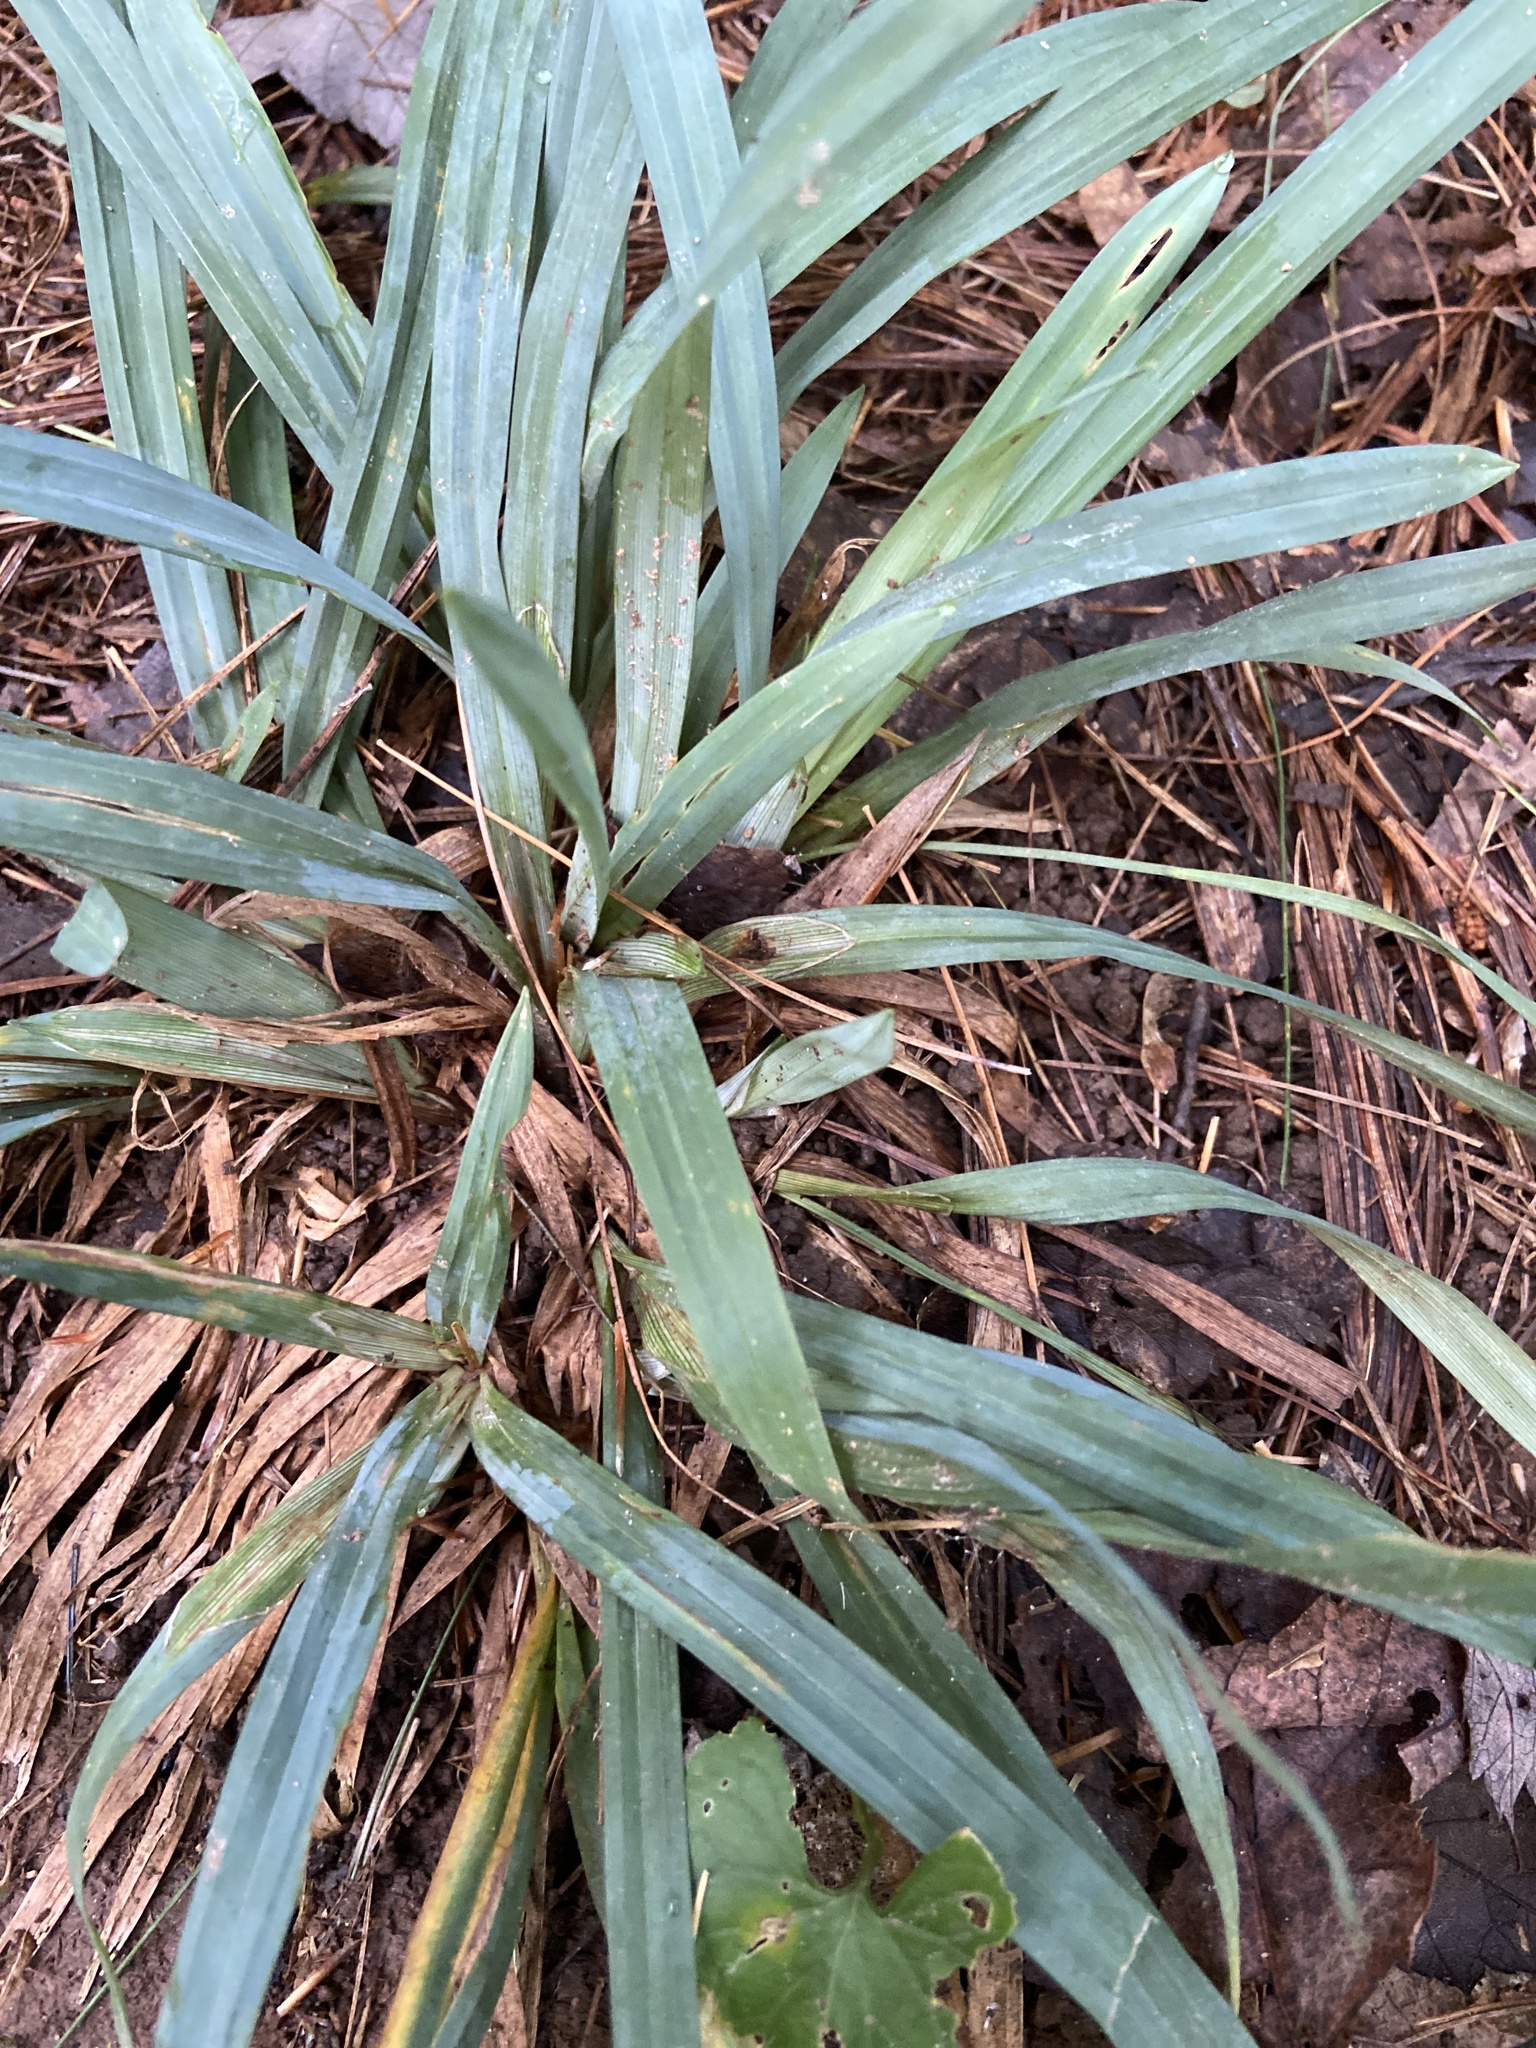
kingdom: Plantae
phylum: Tracheophyta
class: Liliopsida
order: Poales
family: Cyperaceae
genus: Carex
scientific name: Carex glaucodea
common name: Blue sedge
